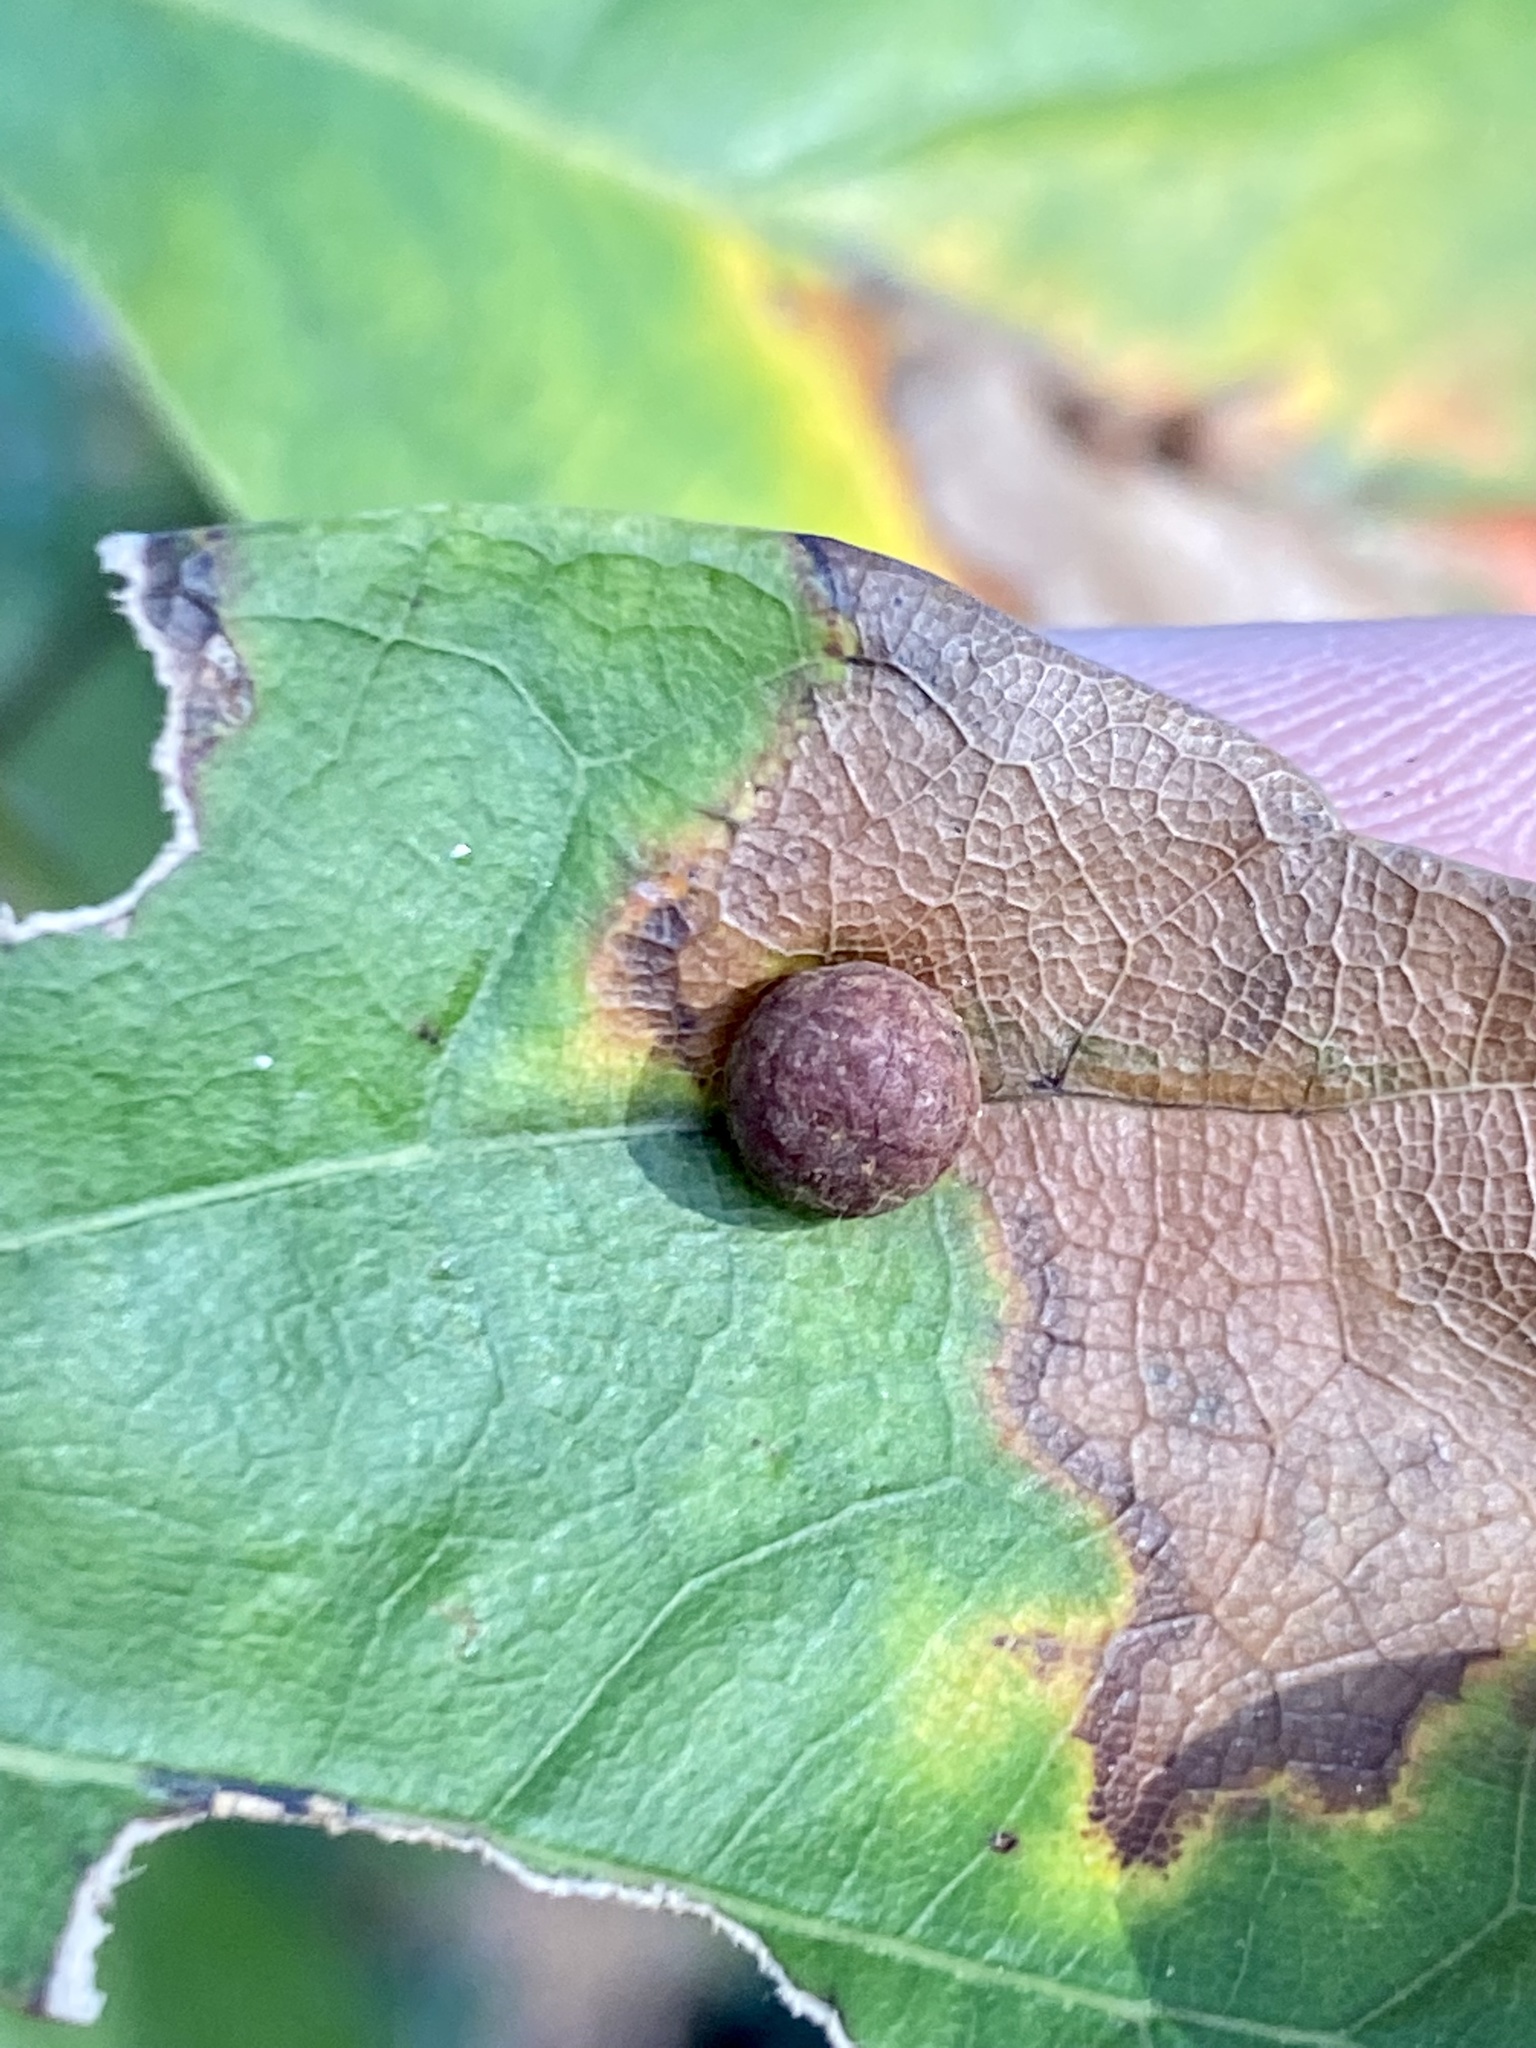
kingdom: Animalia
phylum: Arthropoda
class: Insecta
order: Diptera
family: Cecidomyiidae
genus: Polystepha
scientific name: Polystepha pilulae
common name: Oak leaf gall midge
